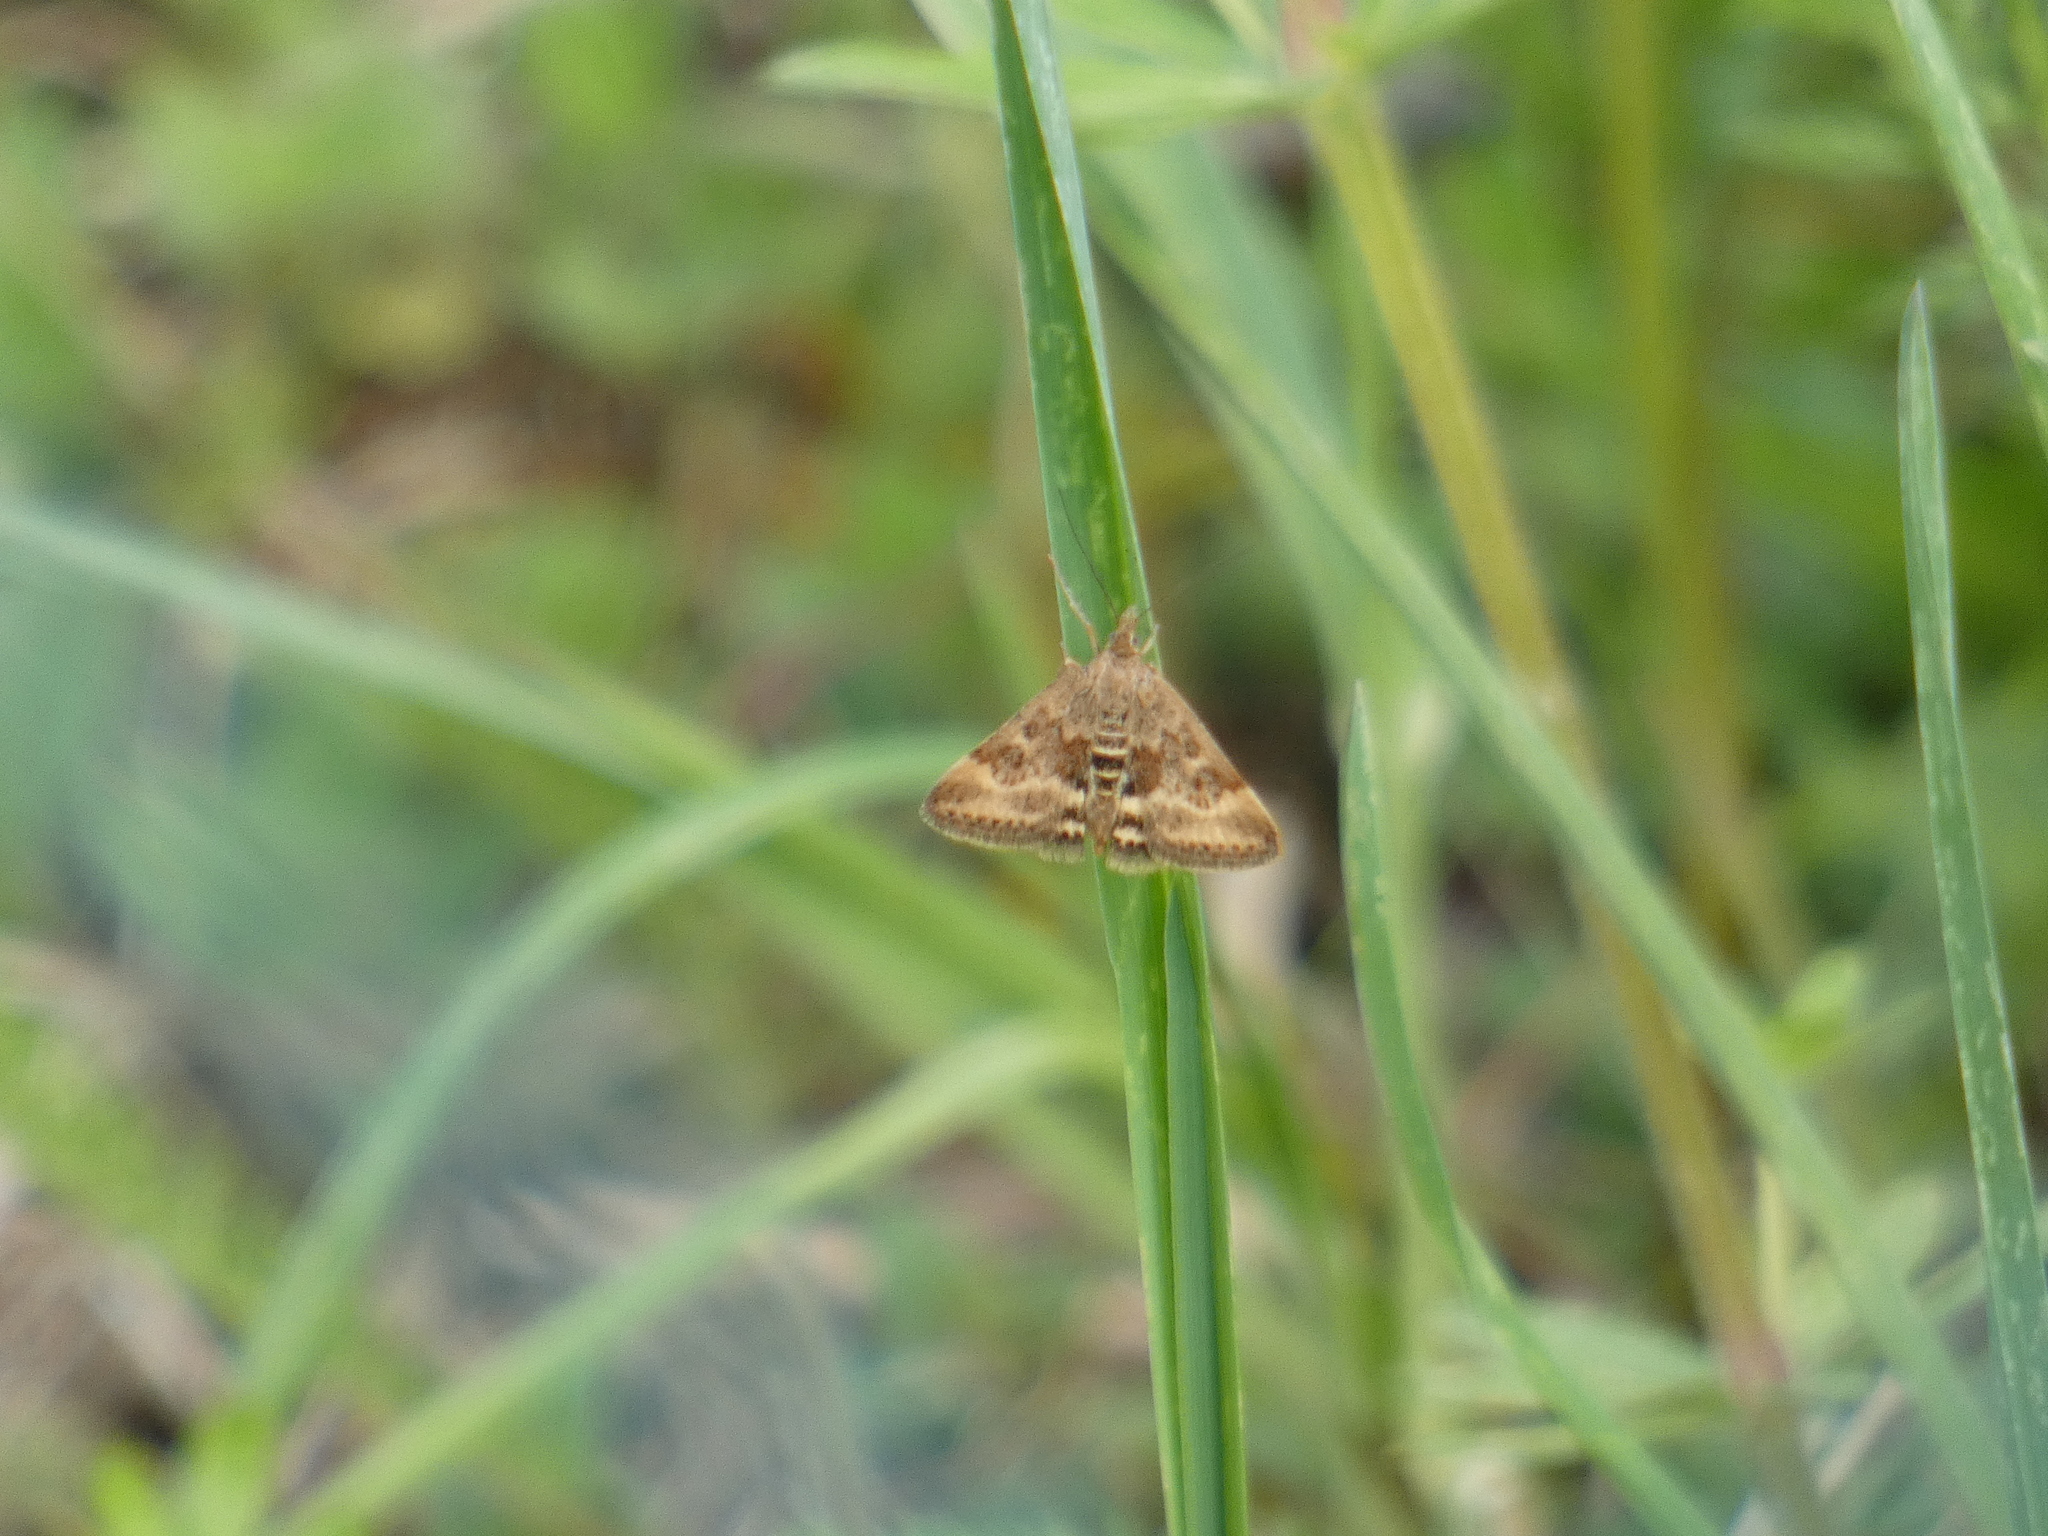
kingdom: Animalia
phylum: Arthropoda
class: Insecta
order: Lepidoptera
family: Crambidae
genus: Pyrausta
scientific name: Pyrausta despicata
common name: Straw-barred pearl
